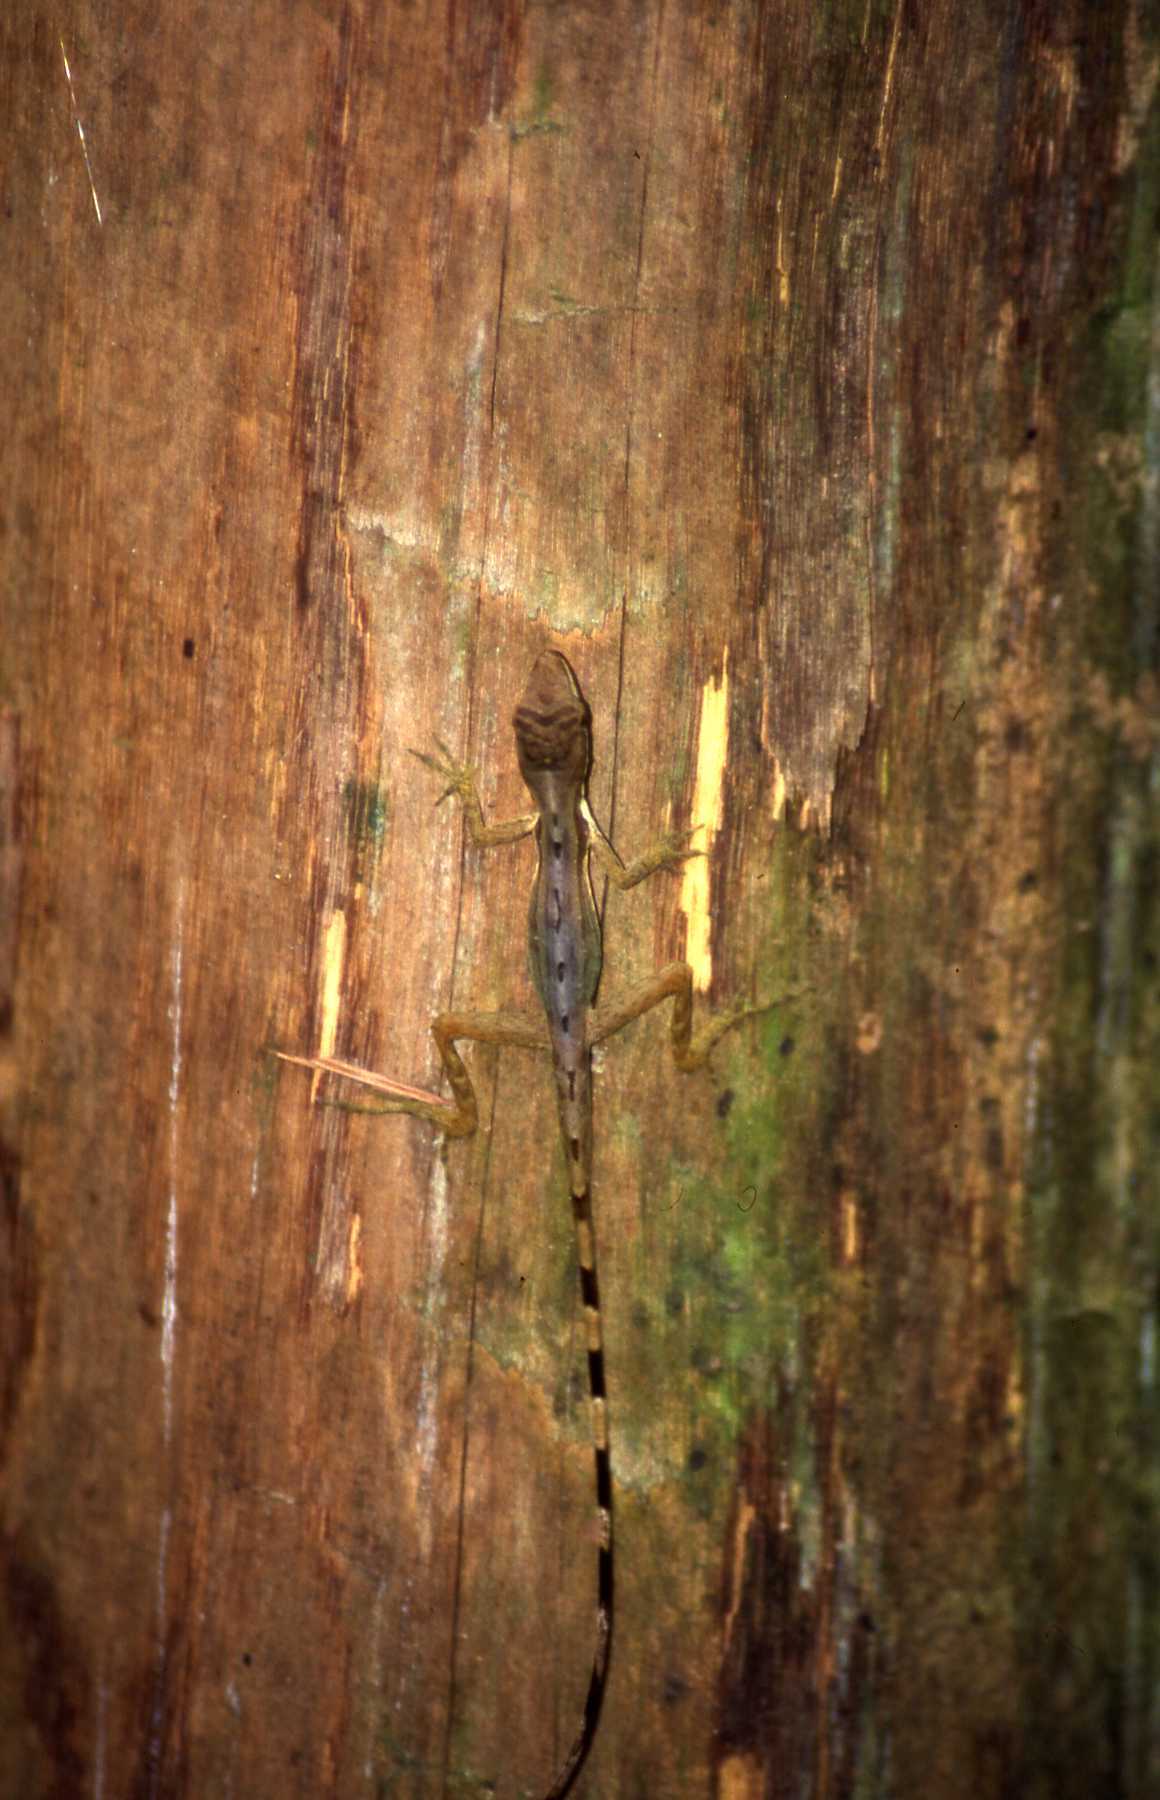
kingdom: Animalia
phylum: Chordata
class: Squamata
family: Dactyloidae
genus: Anolis
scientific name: Anolis limifrons
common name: Border anole
